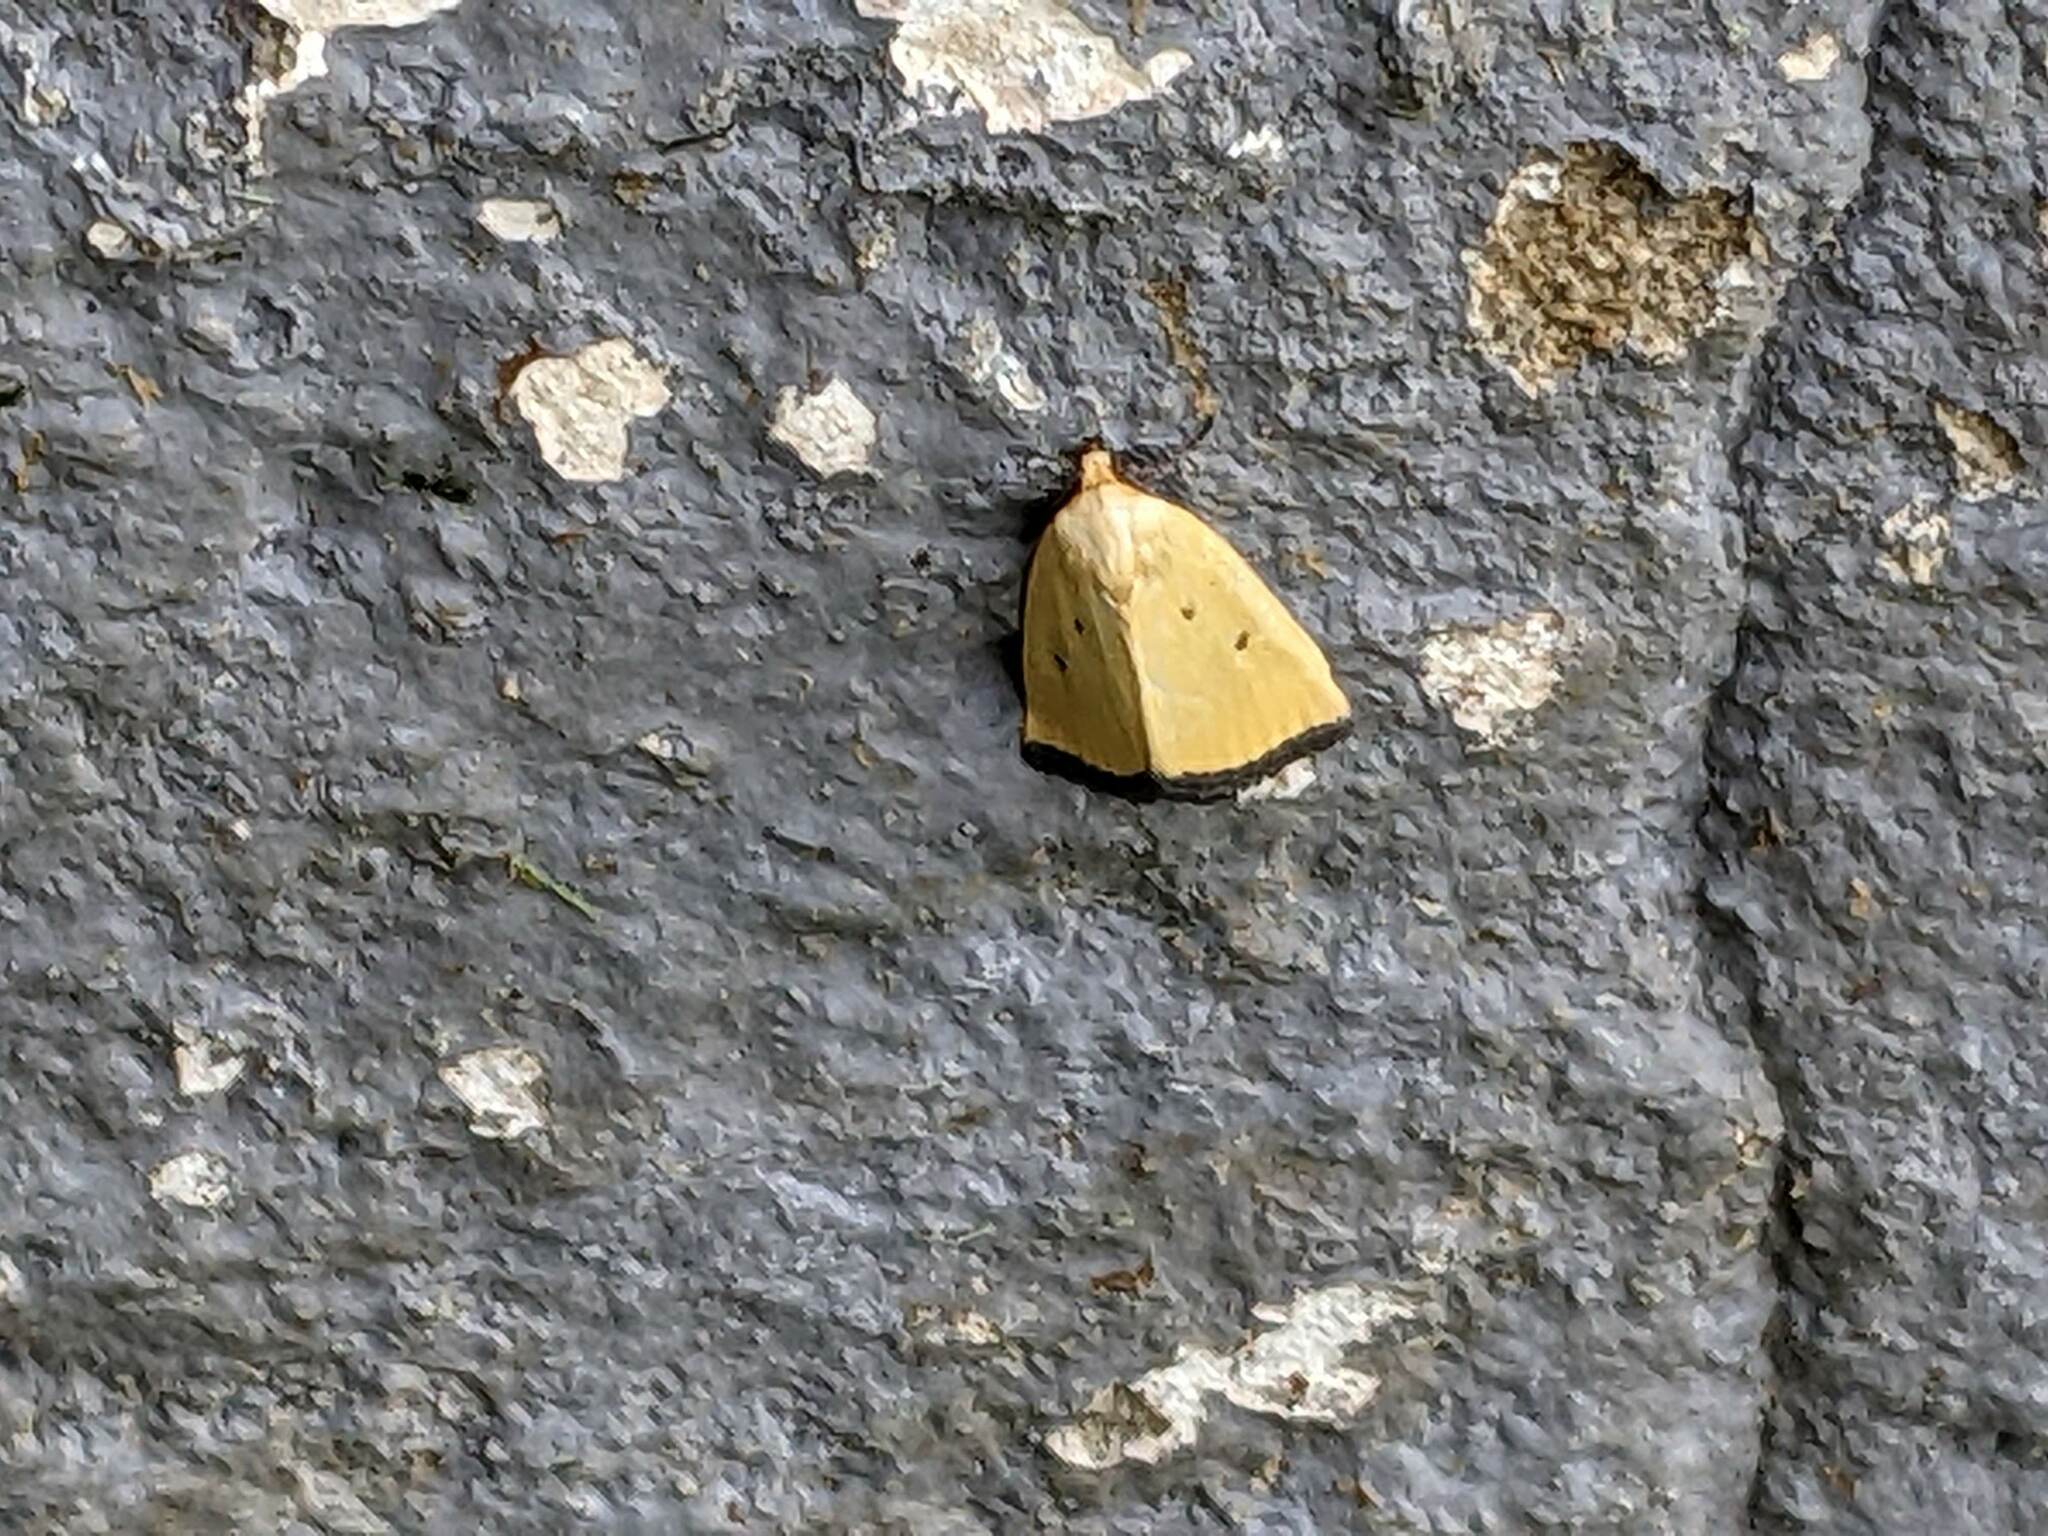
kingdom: Animalia
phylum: Arthropoda
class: Insecta
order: Lepidoptera
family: Noctuidae
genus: Marimatha
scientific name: Marimatha nigrofimbria
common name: Black-bordered lemon moth
